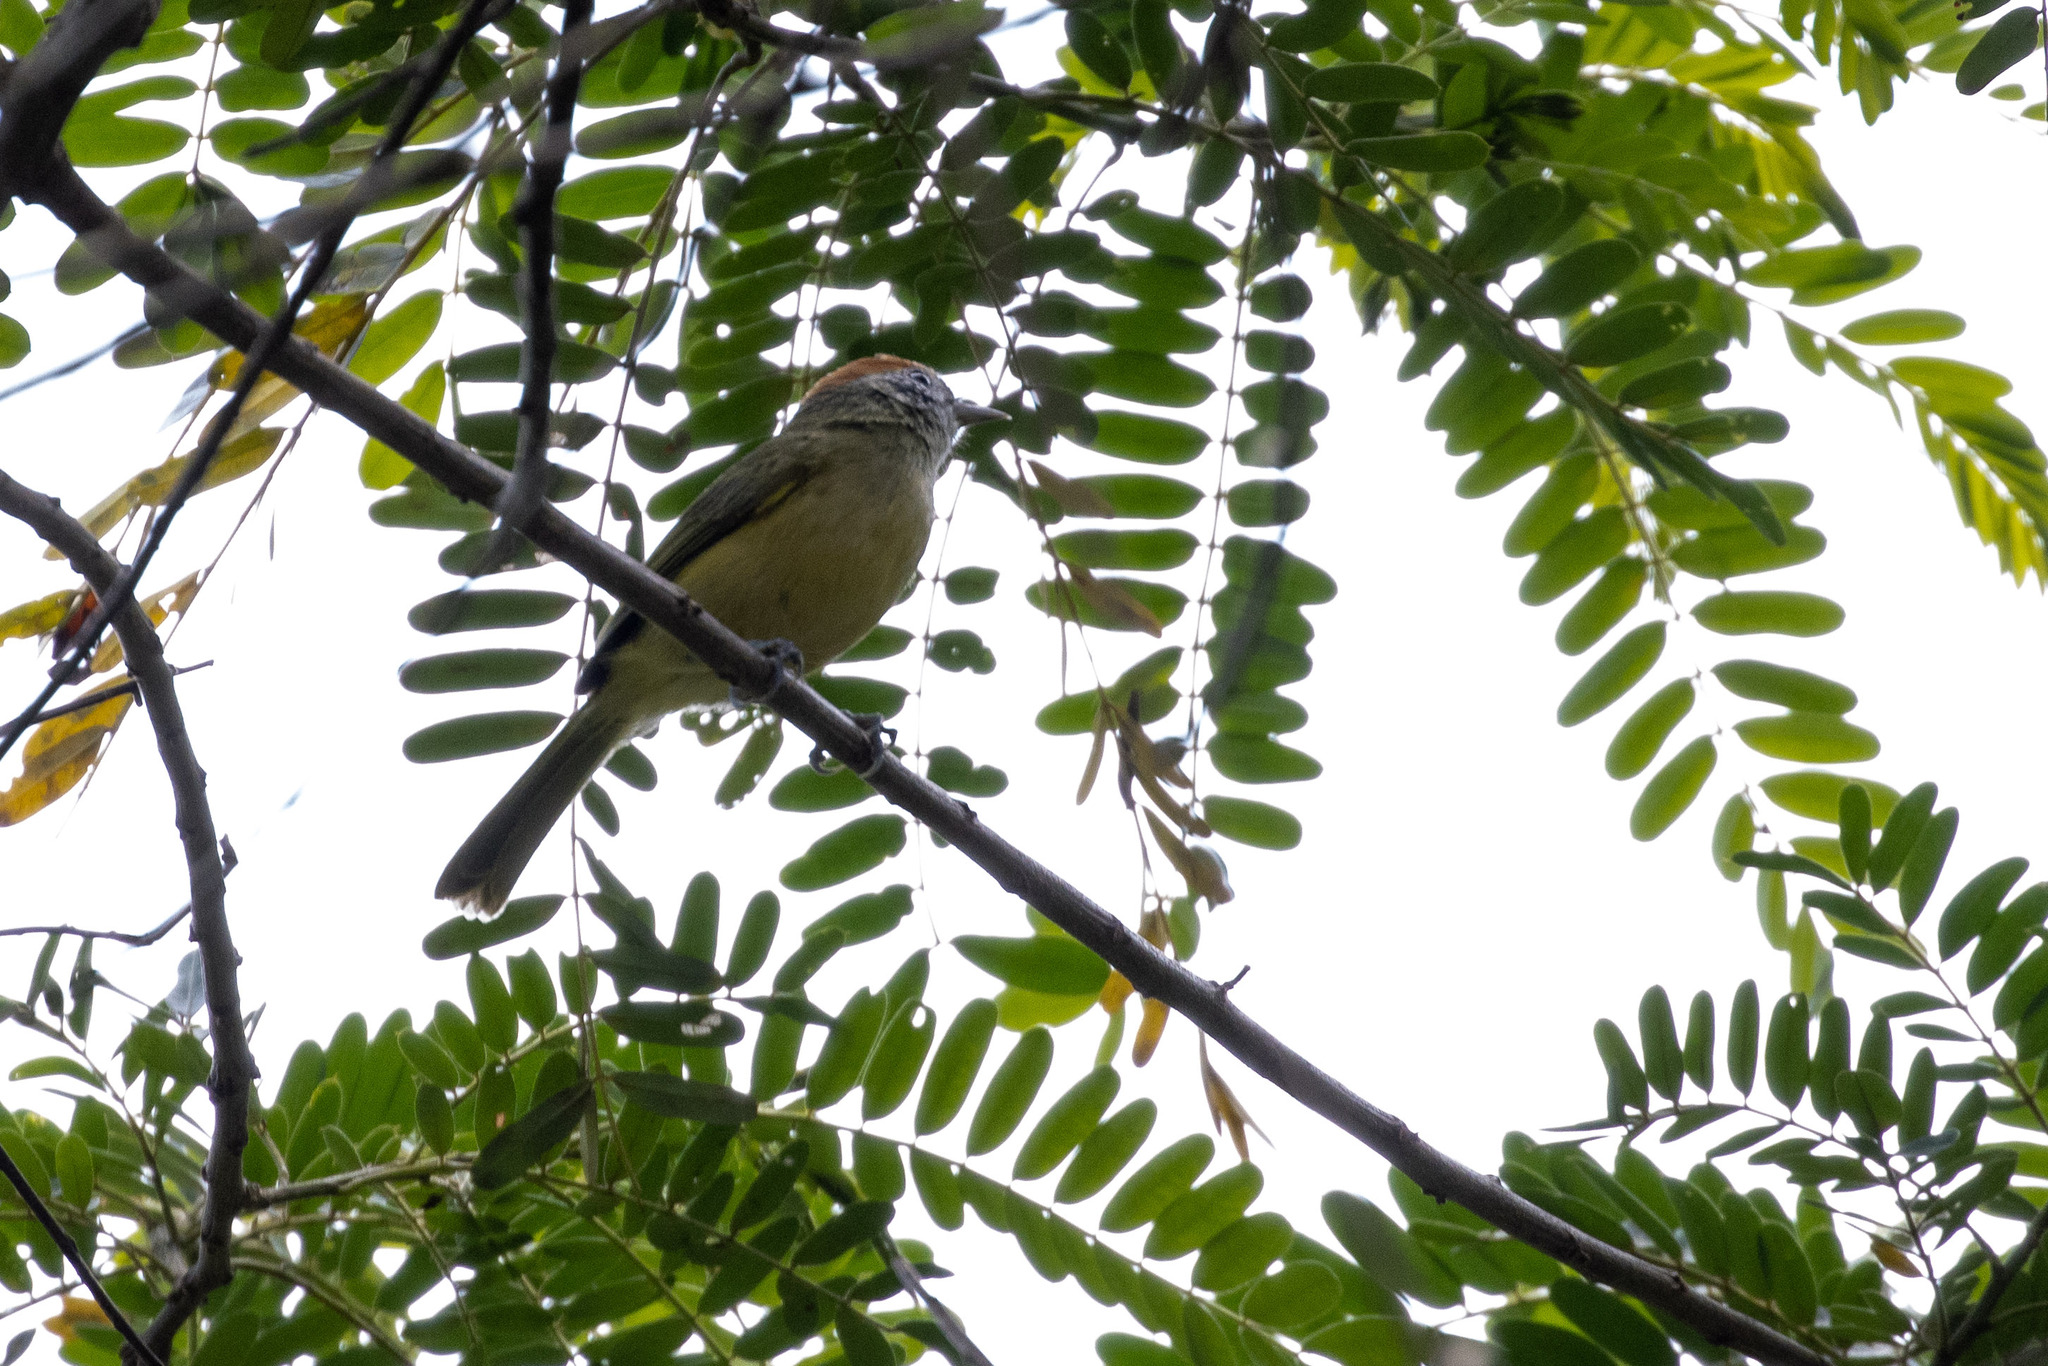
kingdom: Animalia
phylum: Chordata
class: Aves
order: Passeriformes
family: Vireonidae
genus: Hylophilus
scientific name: Hylophilus poicilotis
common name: Rufous-crowned greenlet
